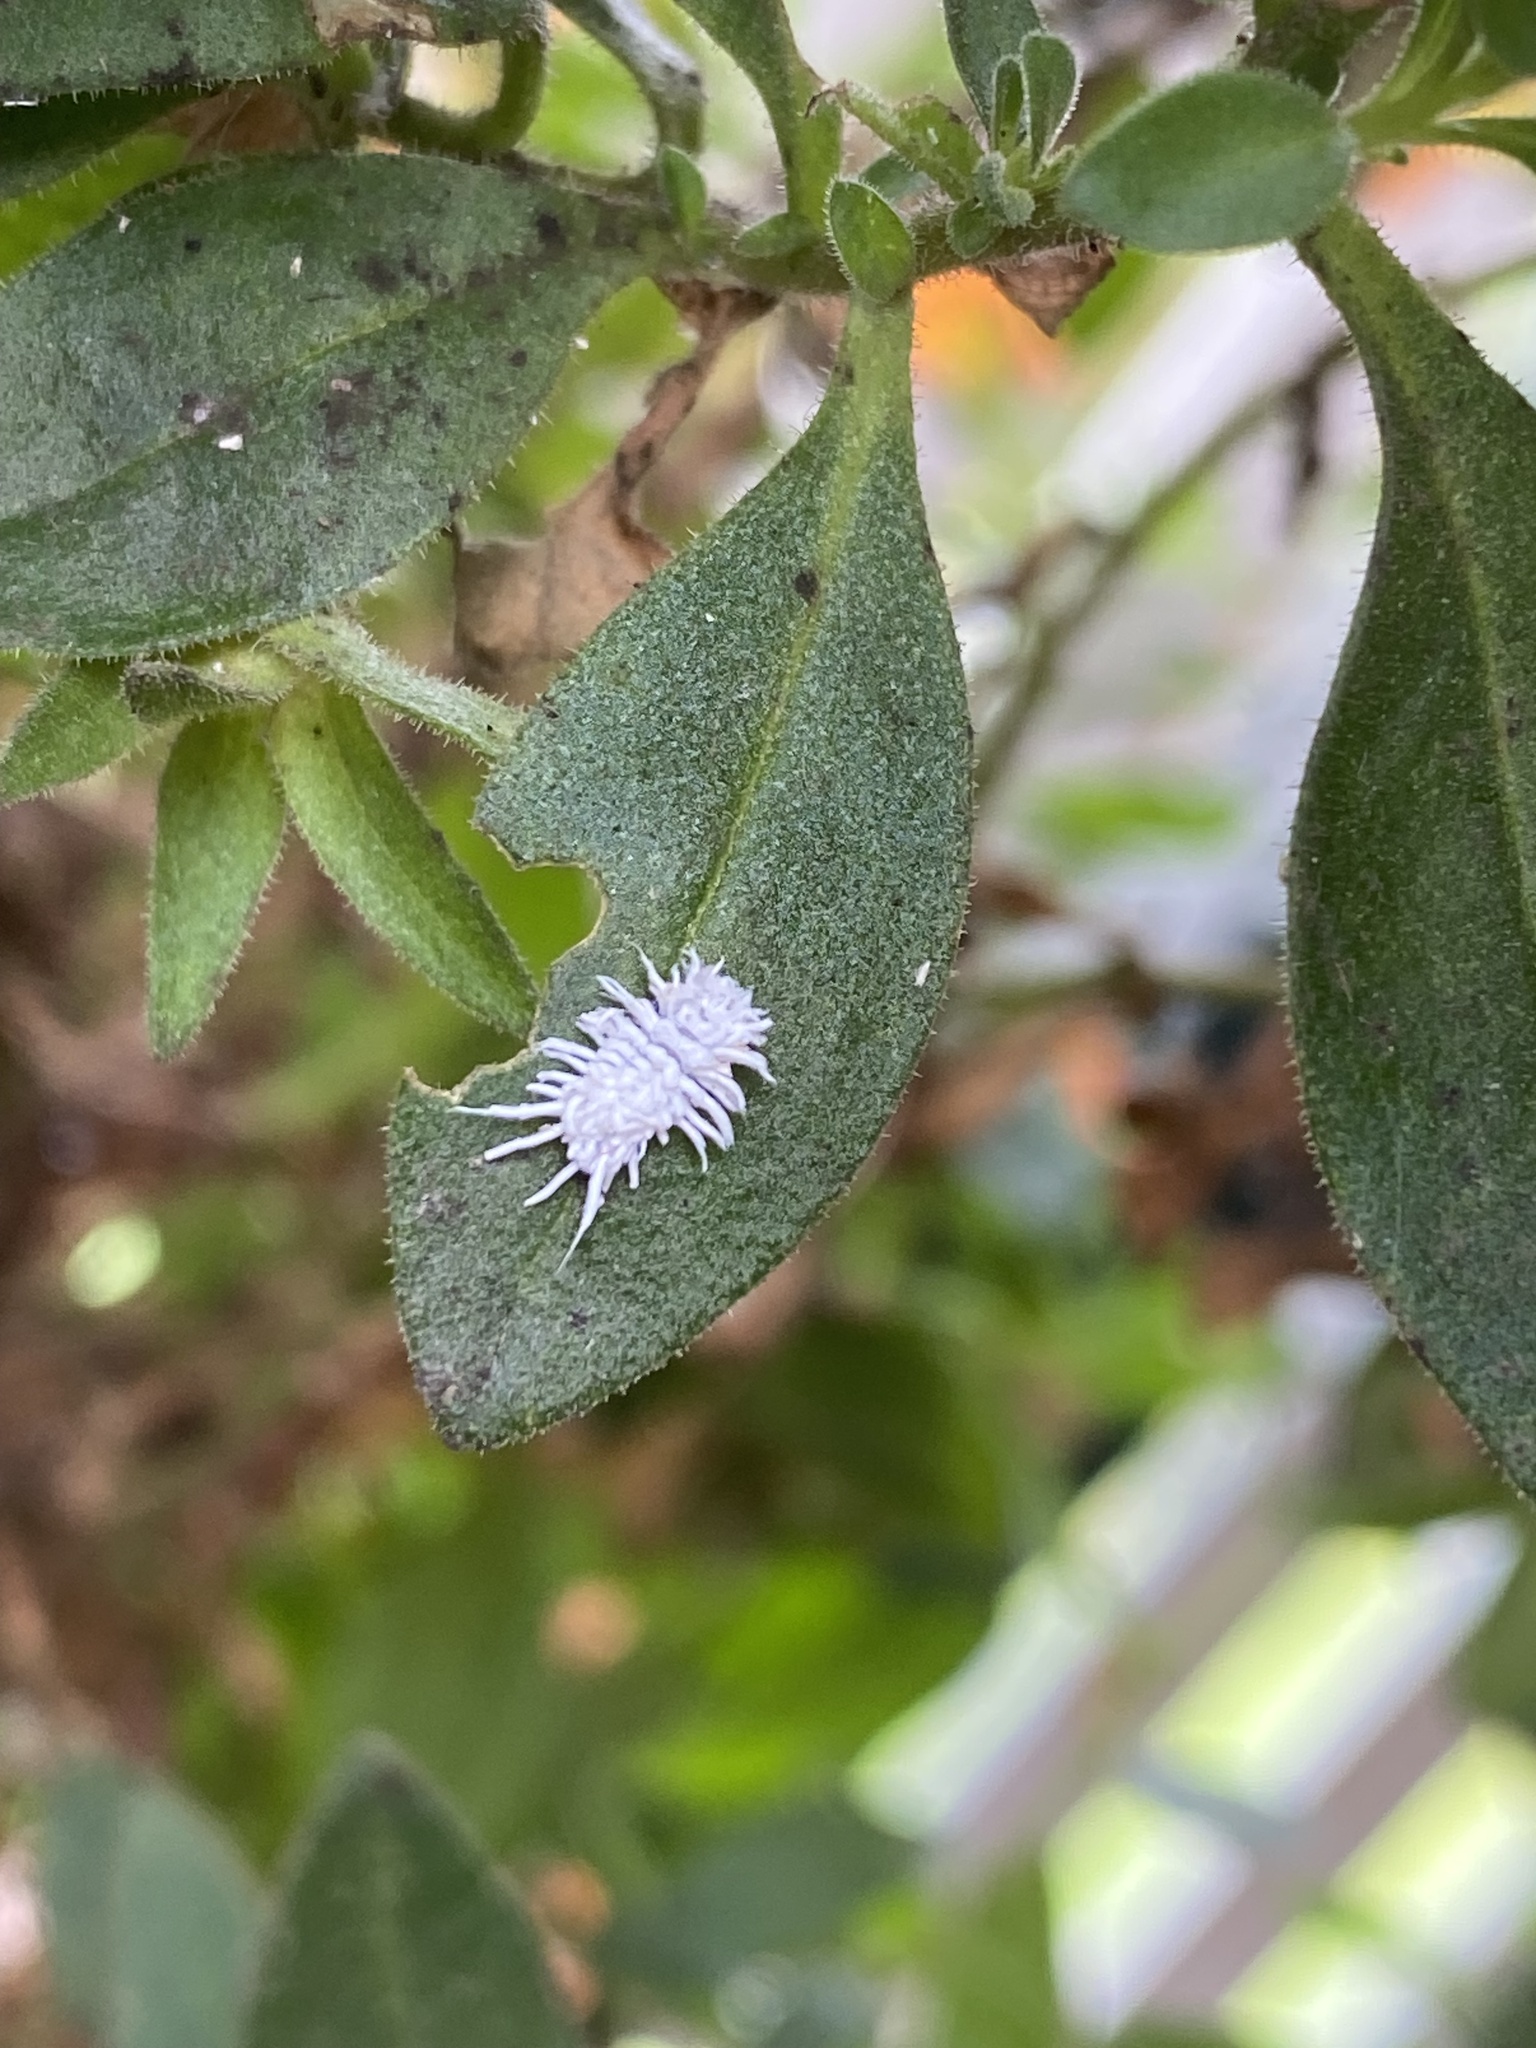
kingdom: Animalia
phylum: Arthropoda
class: Insecta
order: Coleoptera
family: Coccinellidae
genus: Cryptolaemus
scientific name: Cryptolaemus montrouzieri
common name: Mealybug destroyer
